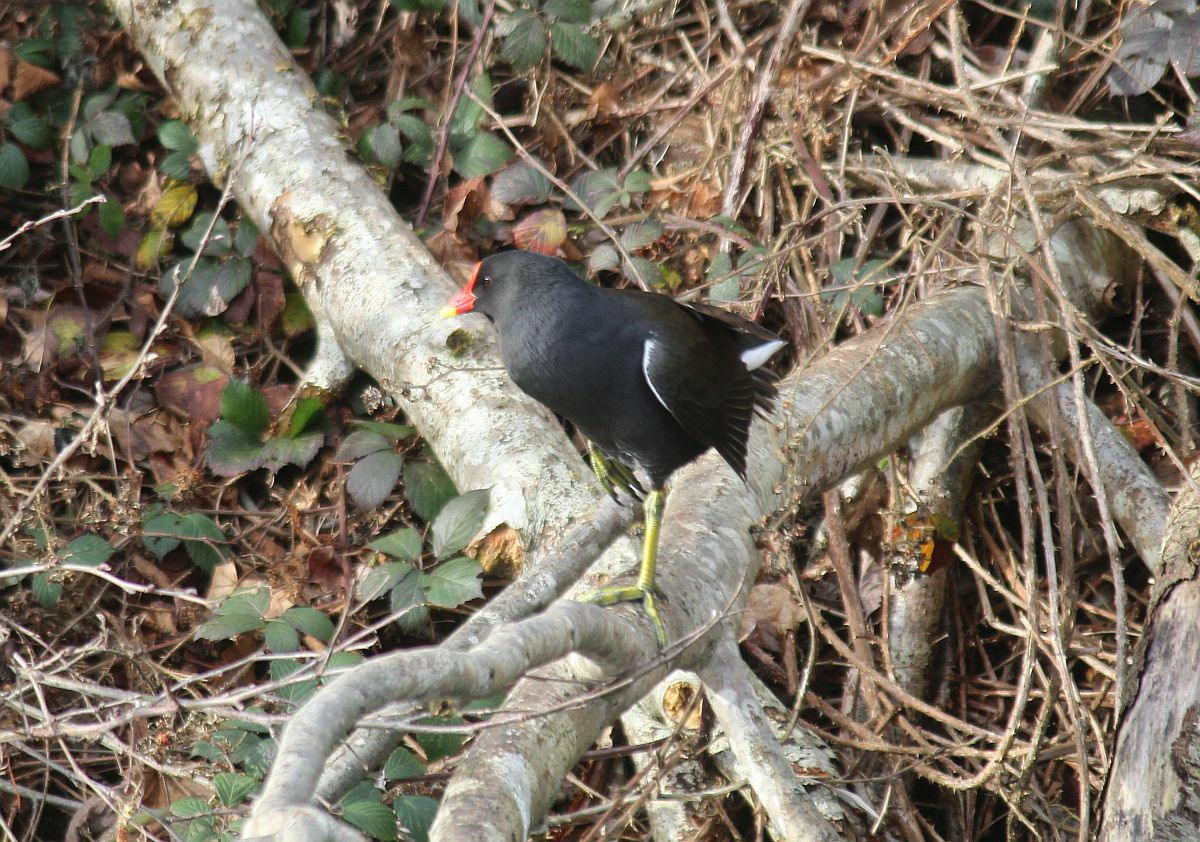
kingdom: Animalia
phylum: Chordata
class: Aves
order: Gruiformes
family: Rallidae
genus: Gallinula
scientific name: Gallinula chloropus
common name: Common moorhen
